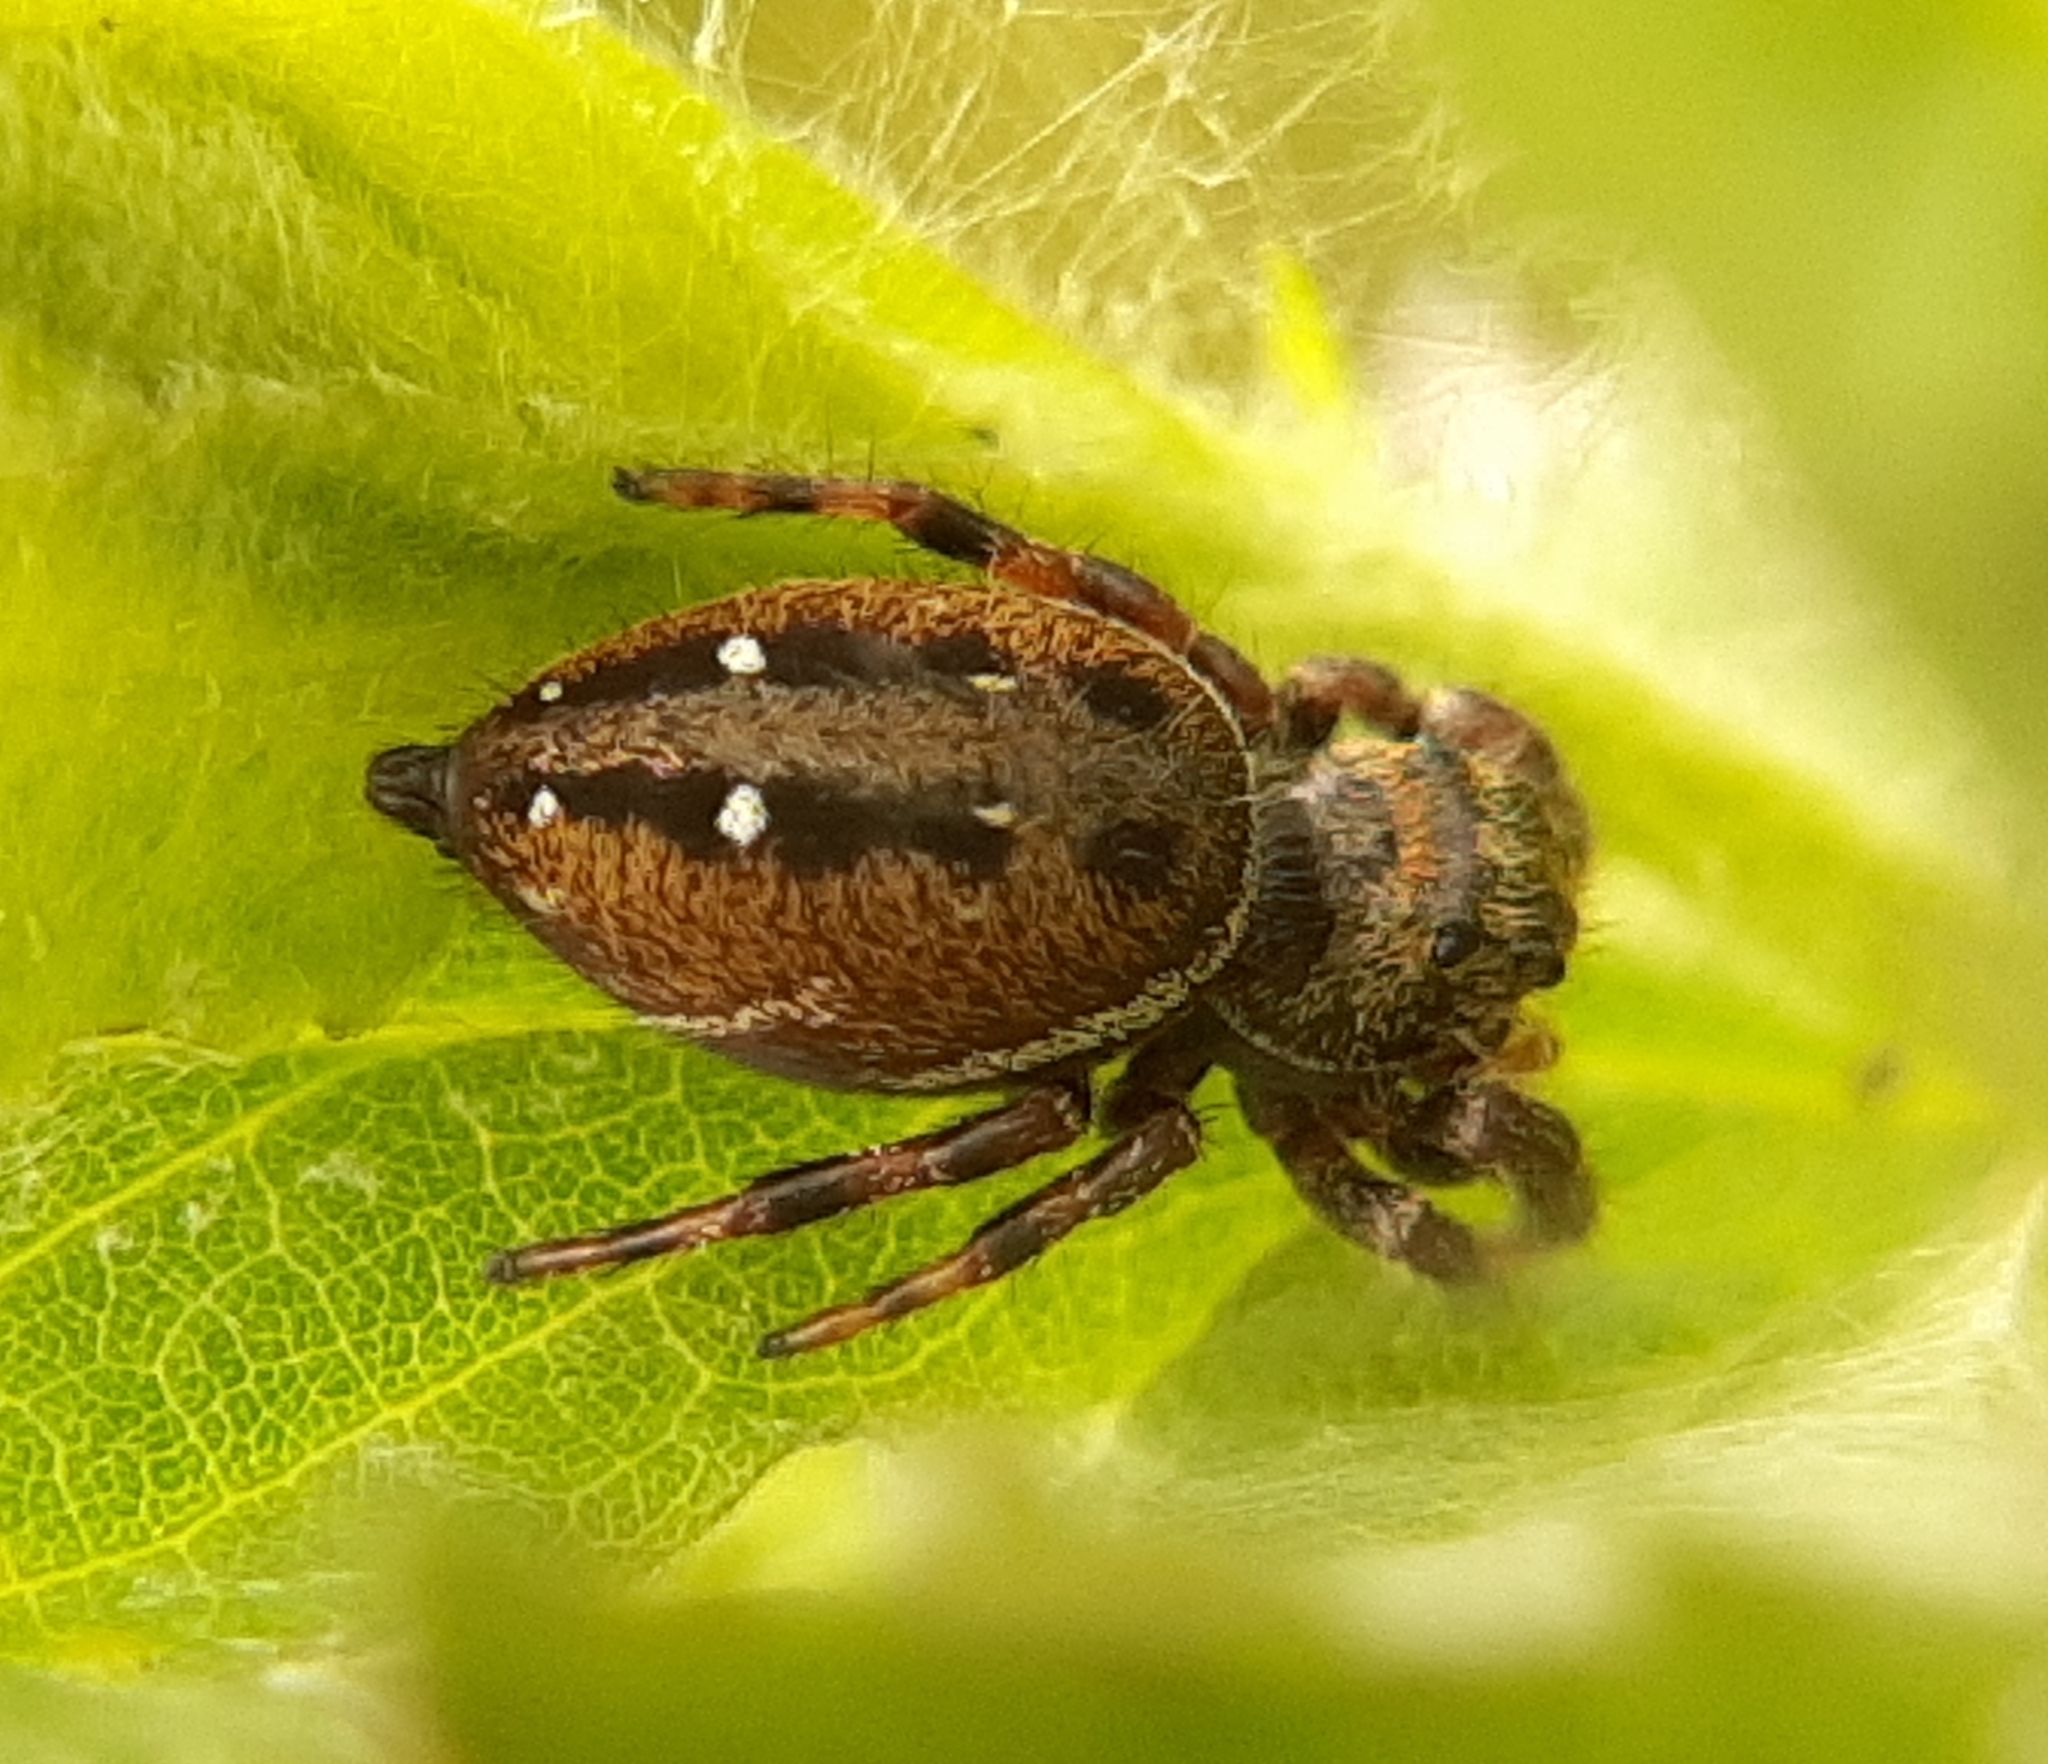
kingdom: Animalia
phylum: Arthropoda
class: Arachnida
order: Araneae
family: Salticidae
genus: Phidippus
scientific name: Phidippus clarus
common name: Brilliant jumping spider
